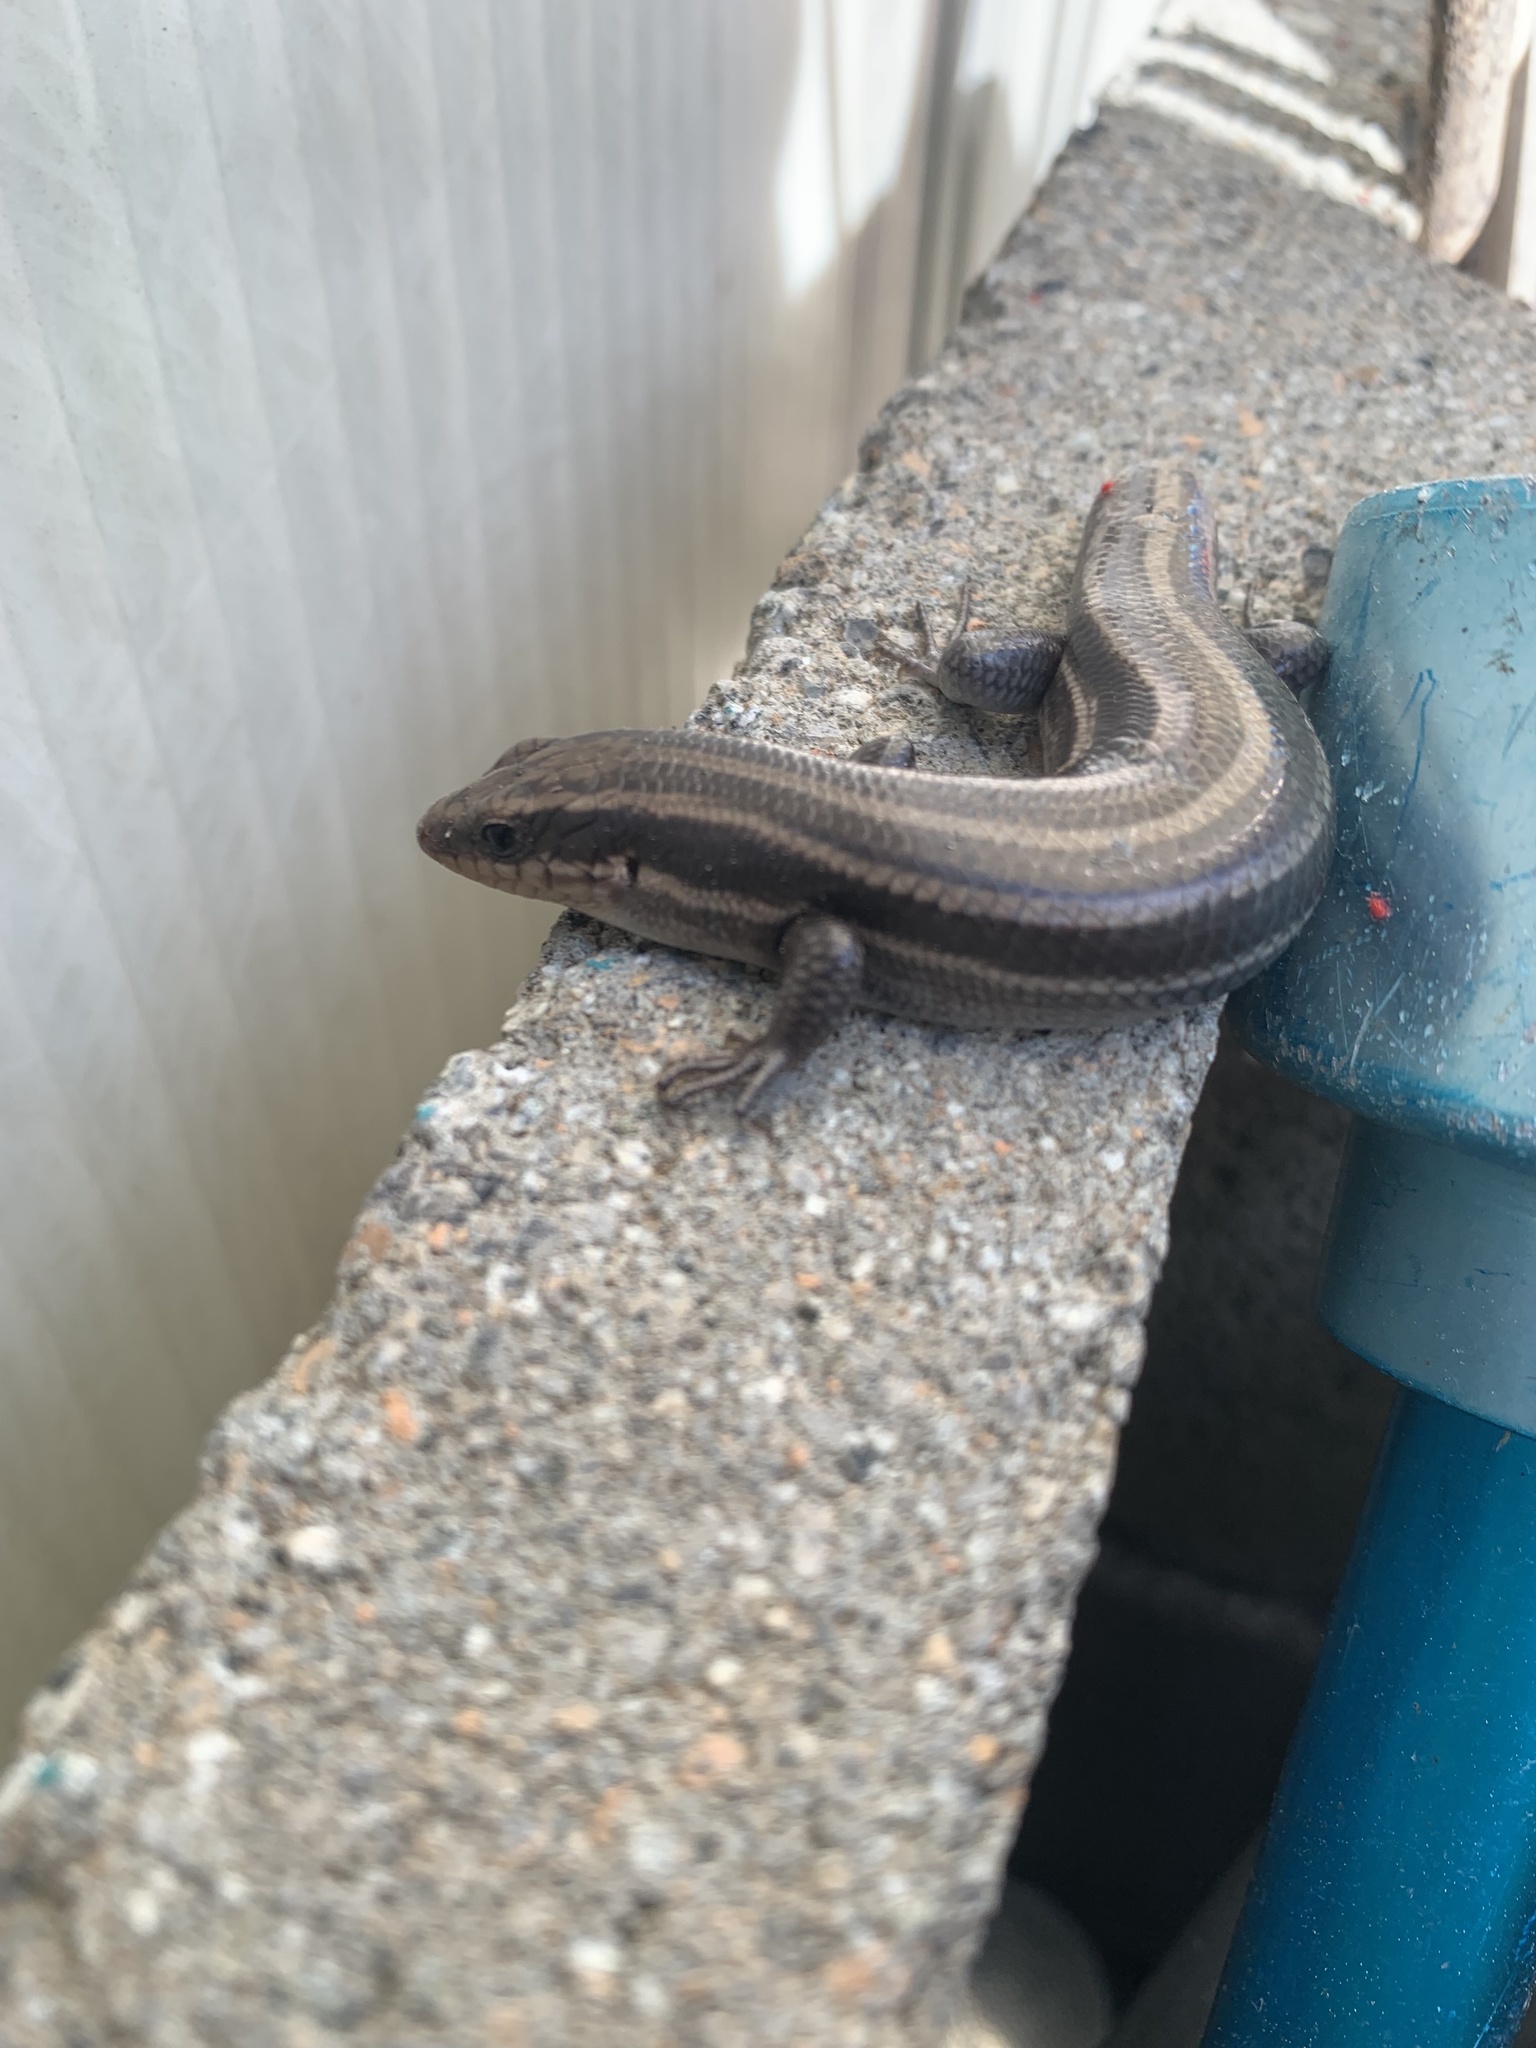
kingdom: Animalia
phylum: Chordata
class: Squamata
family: Scincidae
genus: Plestiodon
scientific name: Plestiodon fasciatus
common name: Five-lined skink
